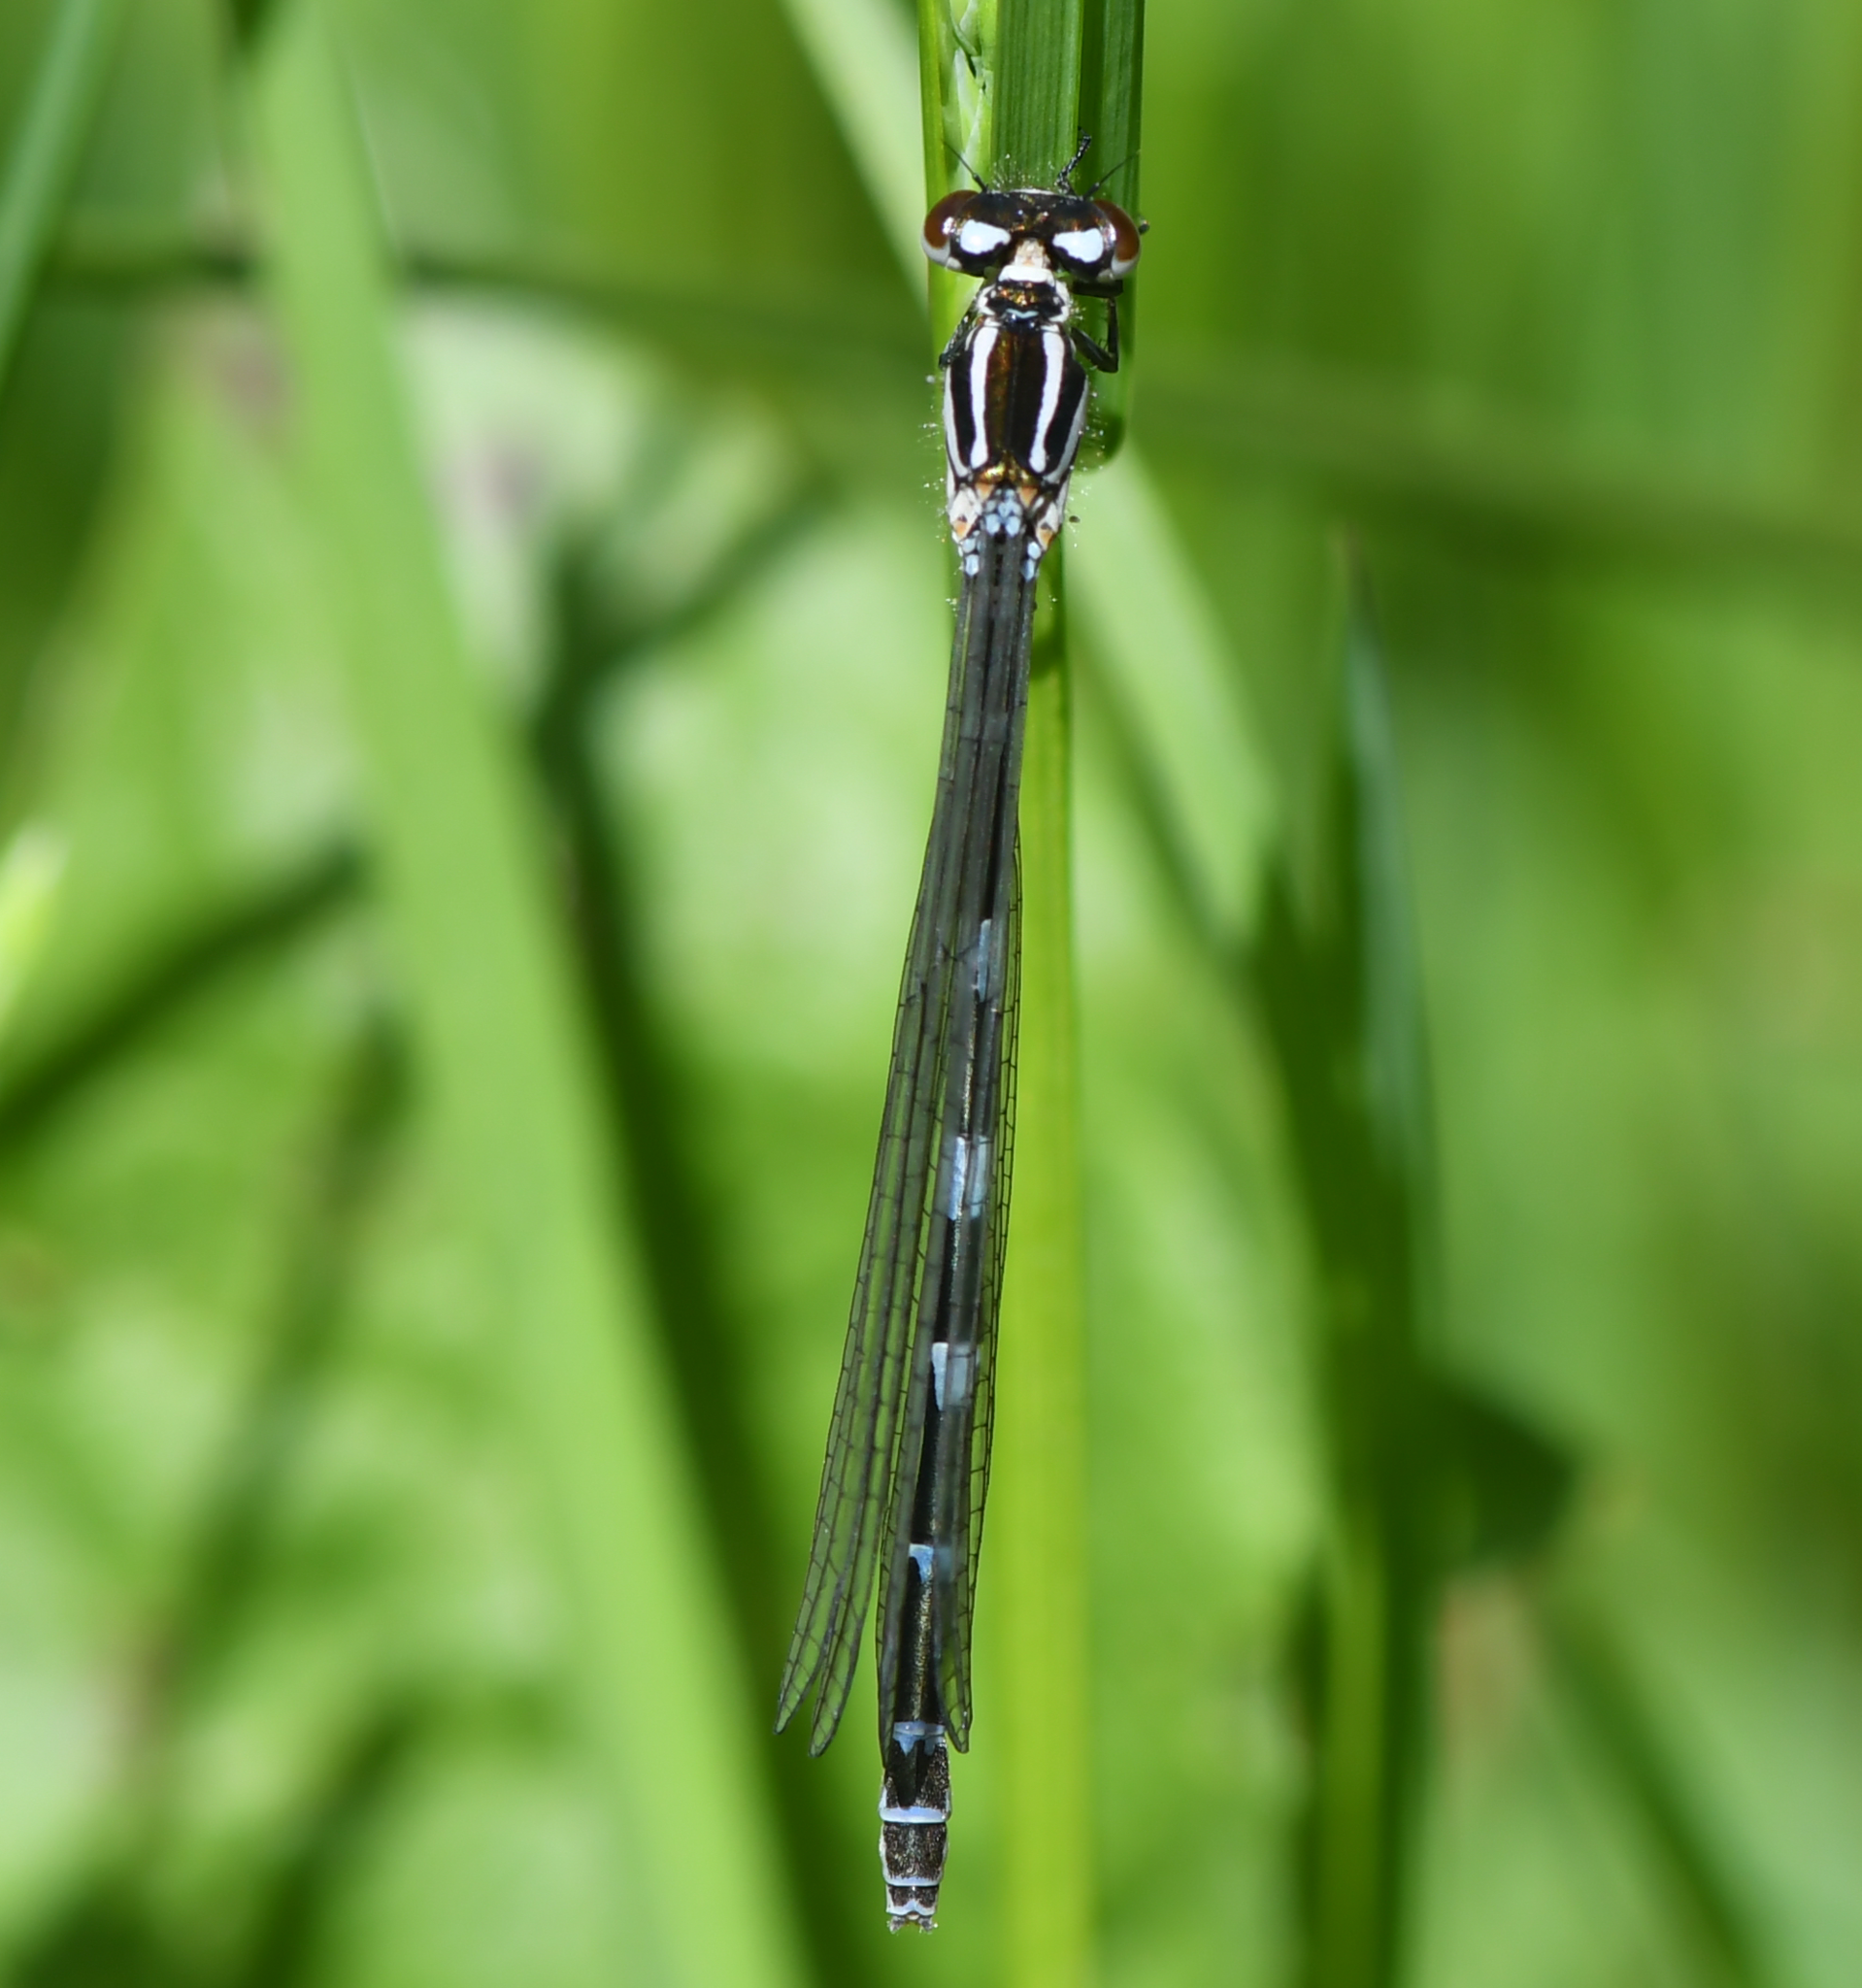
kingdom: Animalia
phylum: Arthropoda
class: Insecta
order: Odonata
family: Coenagrionidae
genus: Coenagrion
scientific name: Coenagrion puella
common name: Azure damselfly
